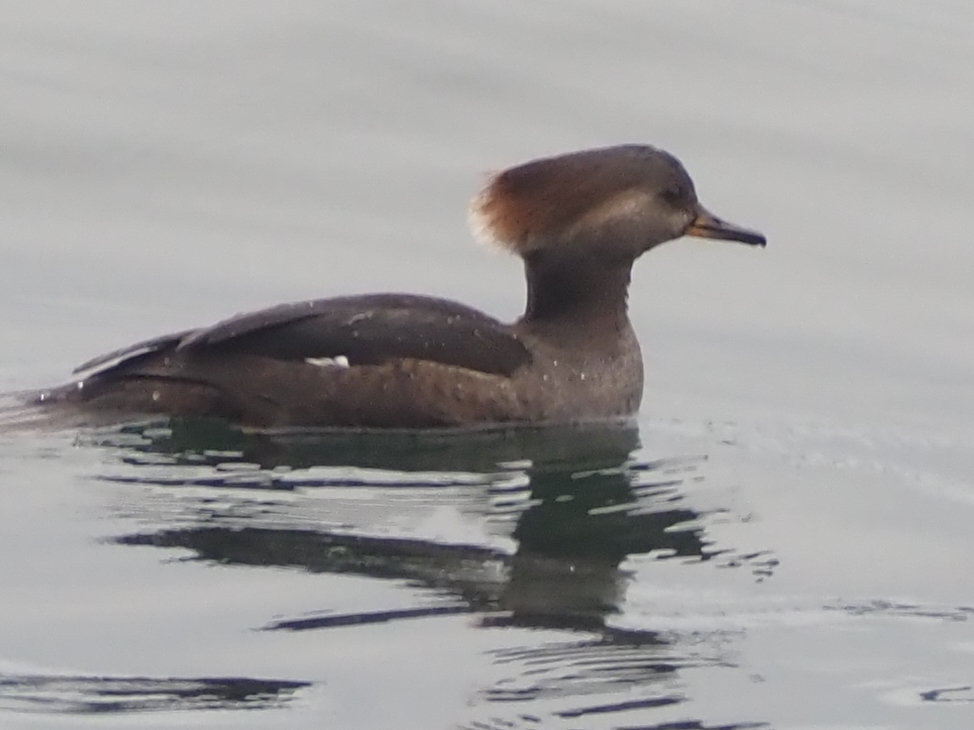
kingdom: Animalia
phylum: Chordata
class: Aves
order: Anseriformes
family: Anatidae
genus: Lophodytes
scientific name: Lophodytes cucullatus
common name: Hooded merganser
